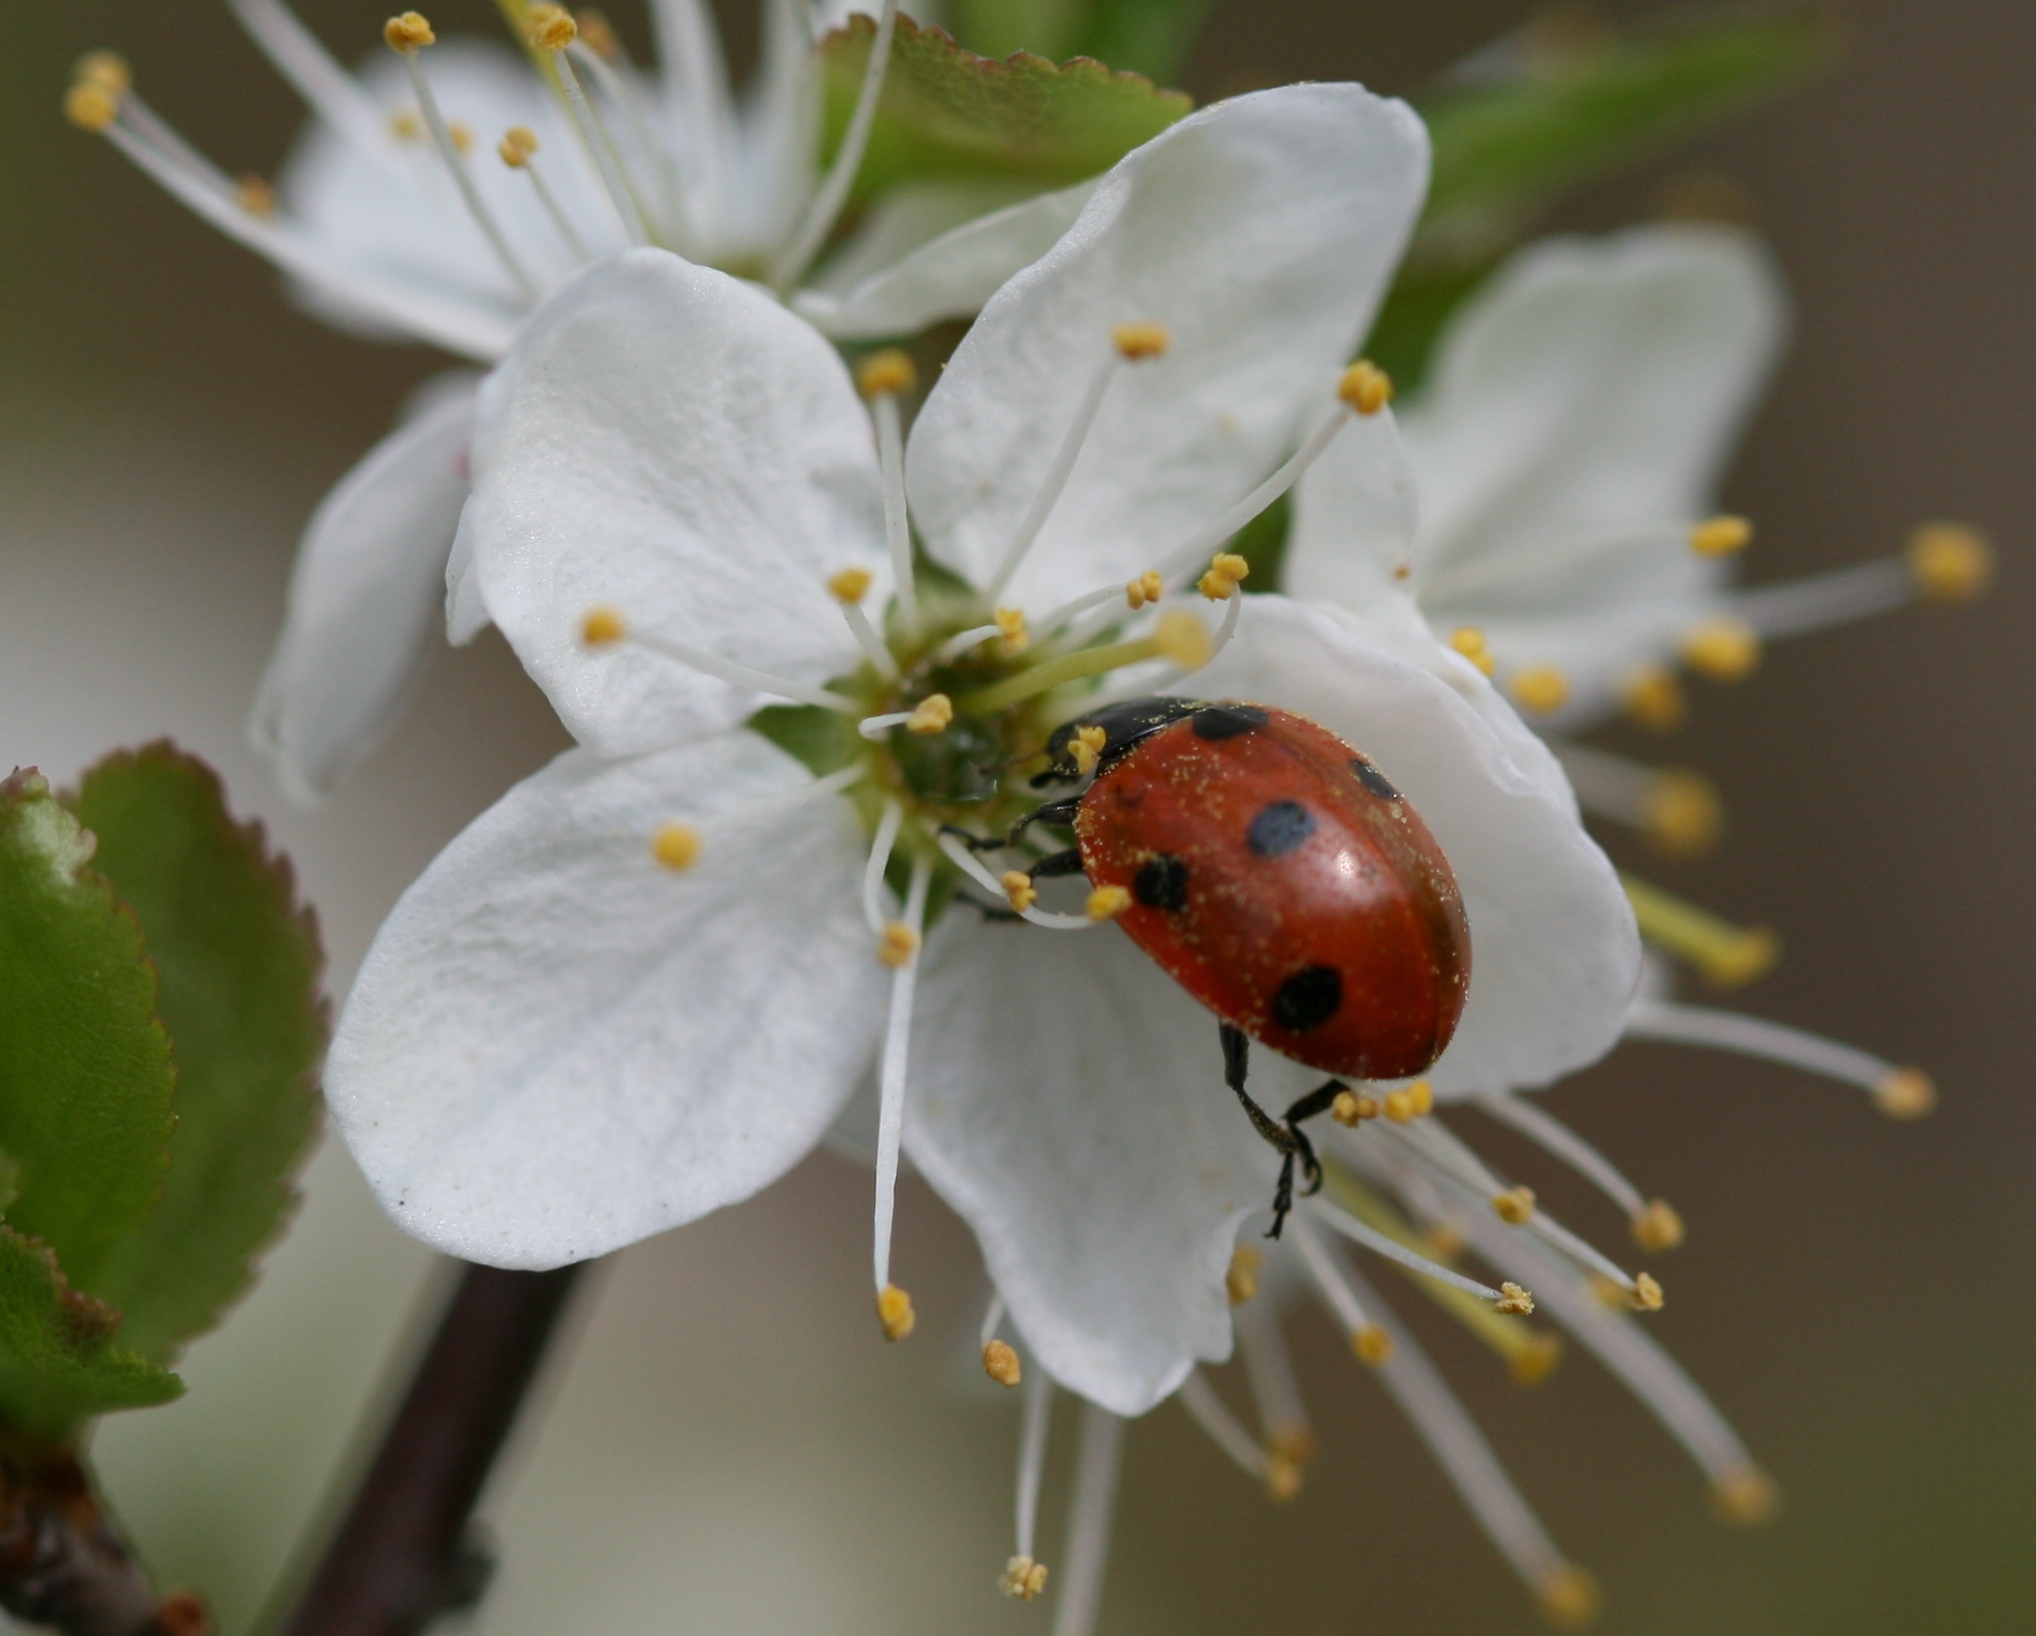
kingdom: Animalia
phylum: Arthropoda
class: Insecta
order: Coleoptera
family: Coccinellidae
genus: Coccinella
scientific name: Coccinella septempunctata
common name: Sevenspotted lady beetle
